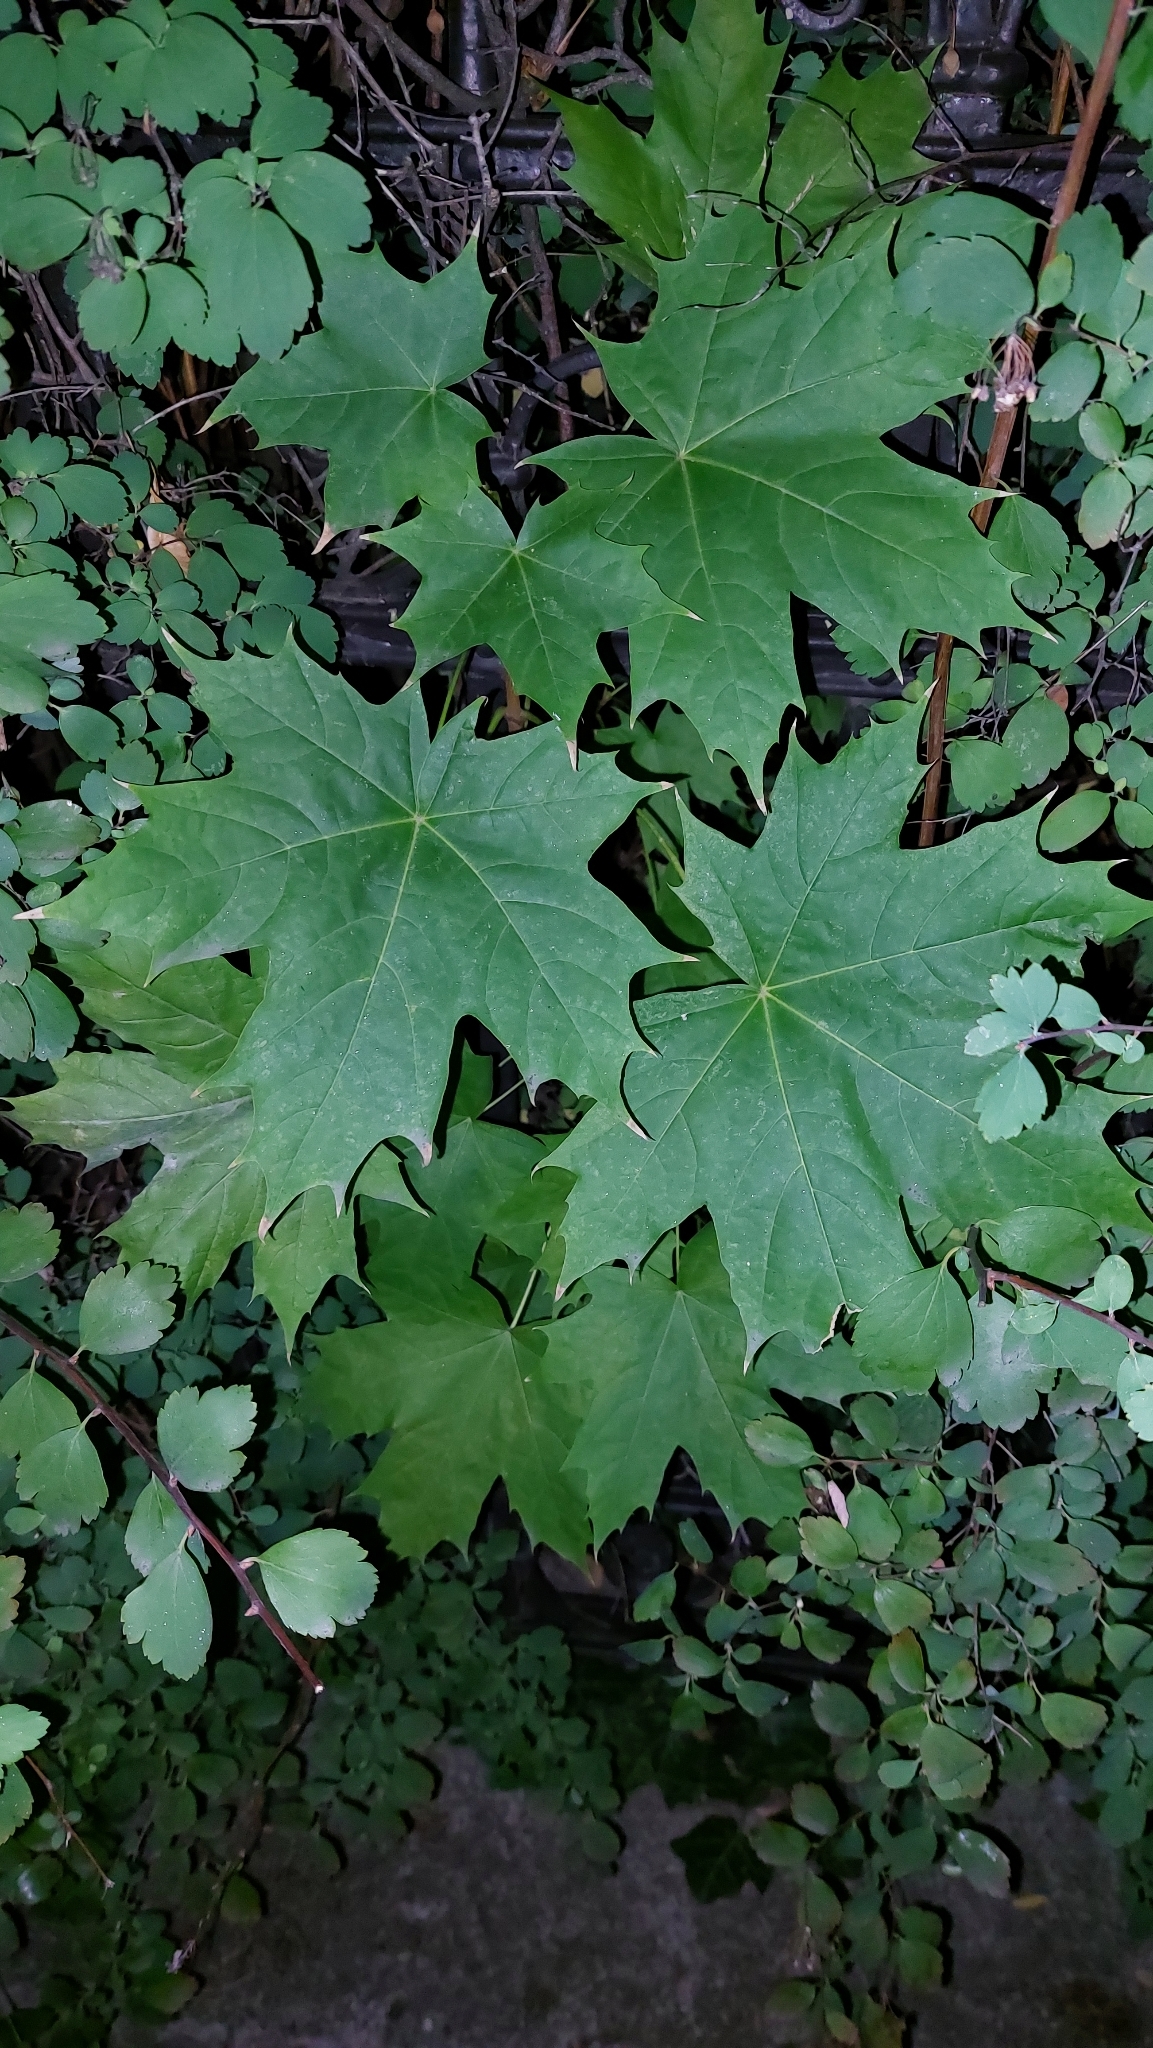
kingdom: Plantae
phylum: Tracheophyta
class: Magnoliopsida
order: Sapindales
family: Sapindaceae
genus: Acer
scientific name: Acer platanoides
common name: Norway maple
